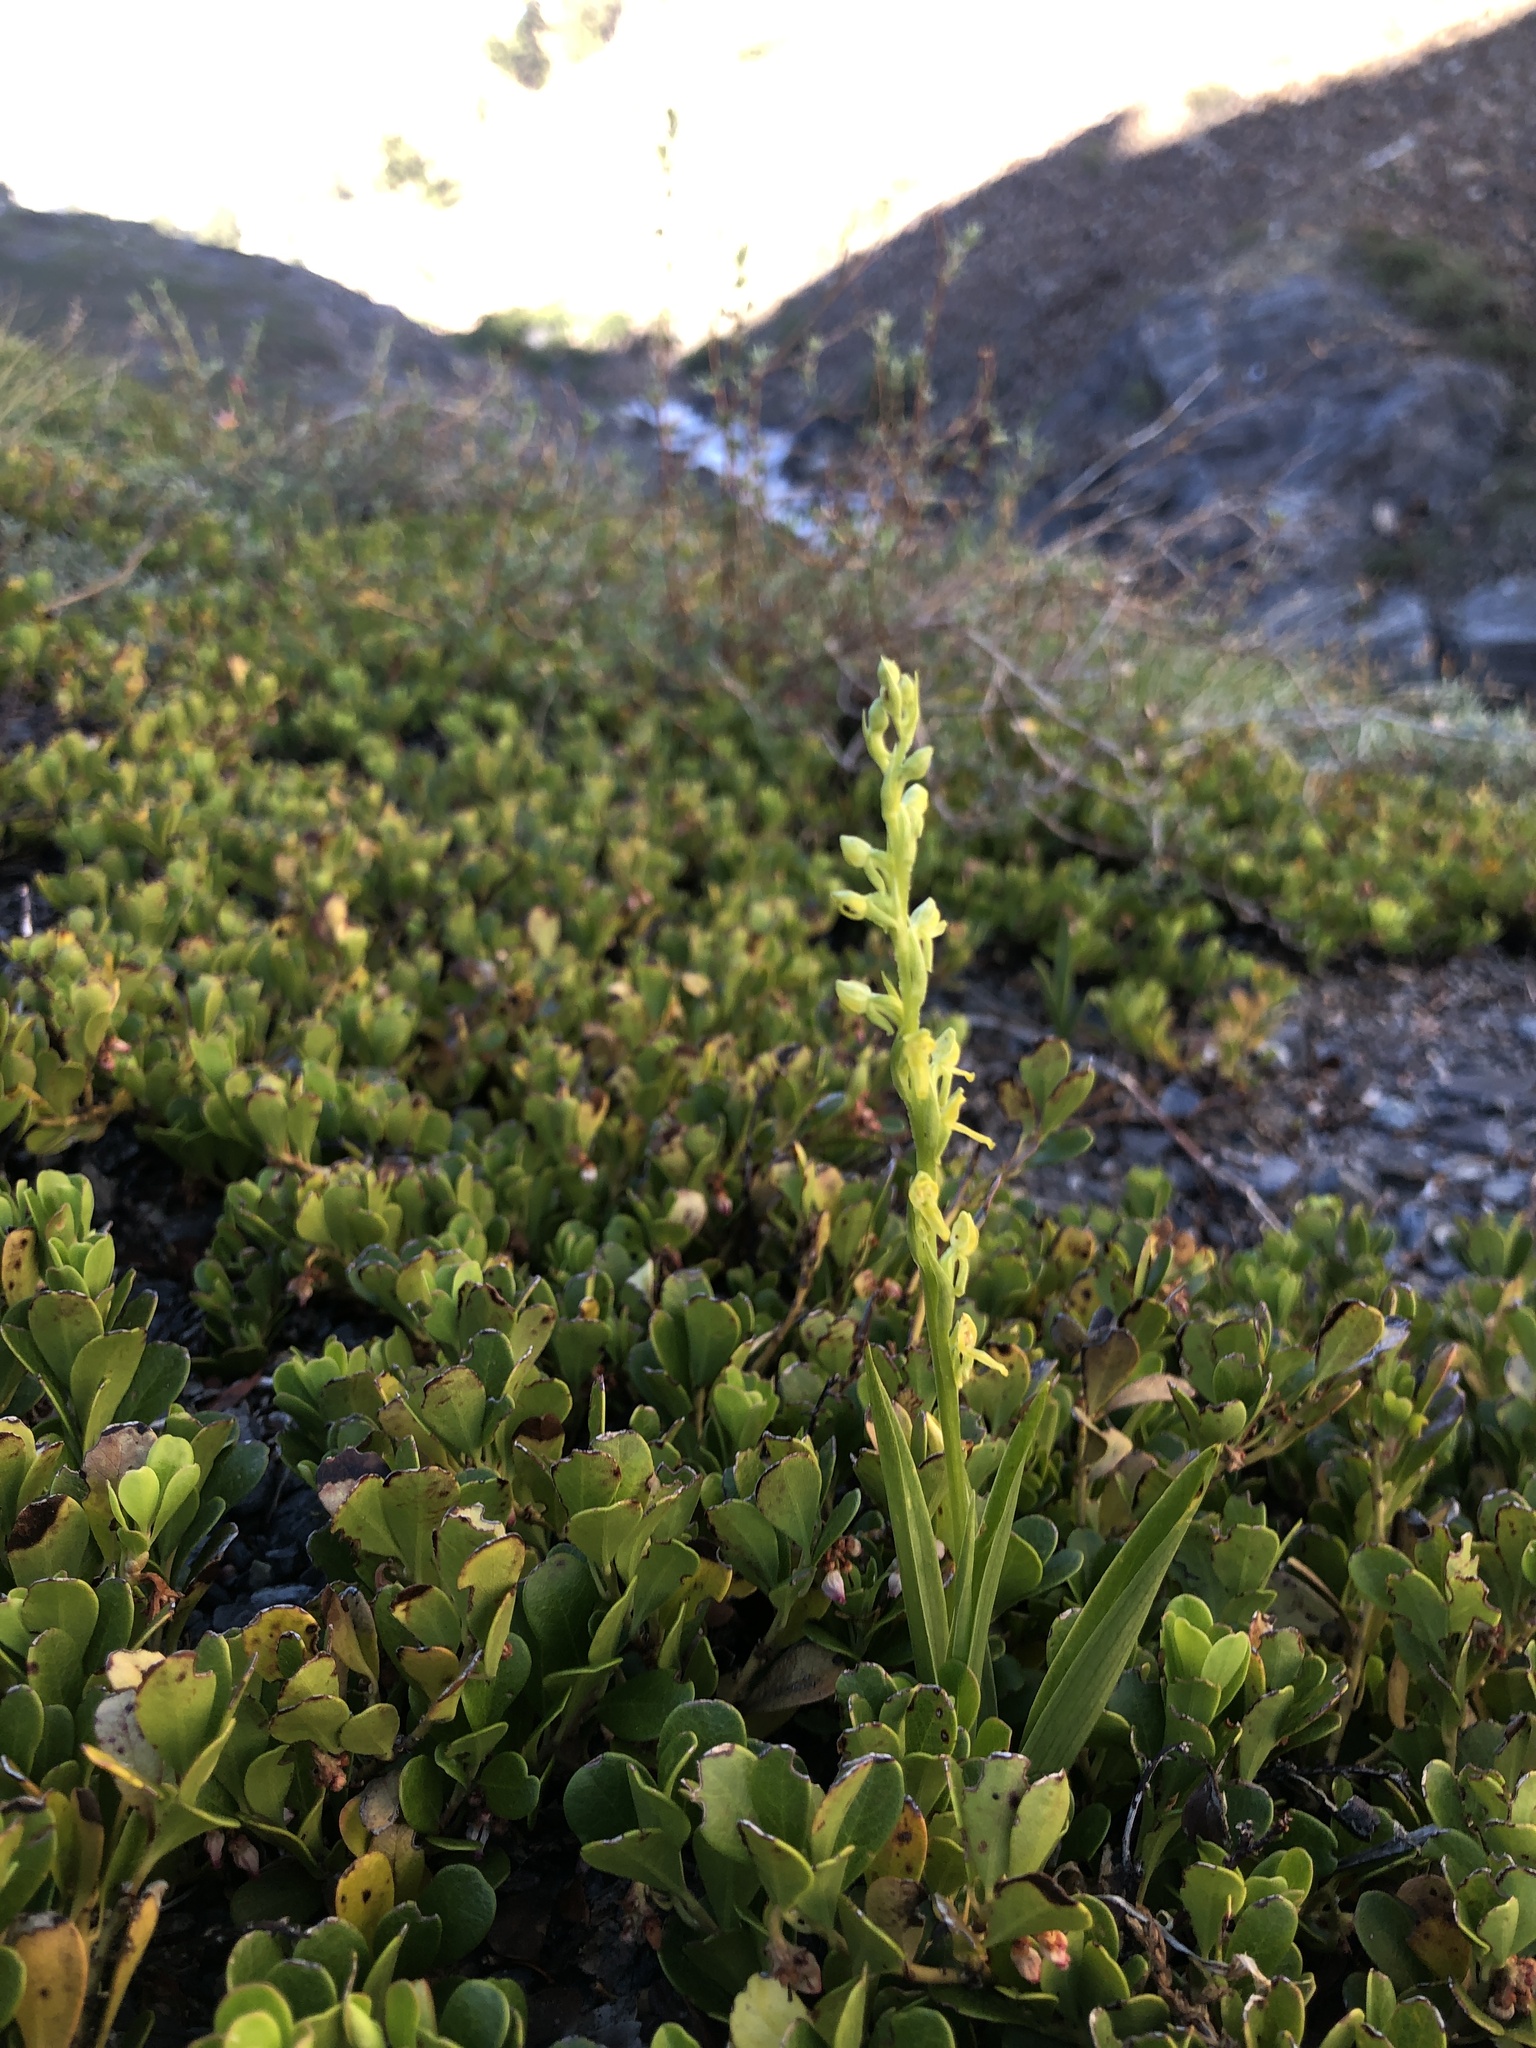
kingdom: Plantae
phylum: Tracheophyta
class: Liliopsida
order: Asparagales
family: Orchidaceae
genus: Platanthera
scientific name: Platanthera tescamnis
